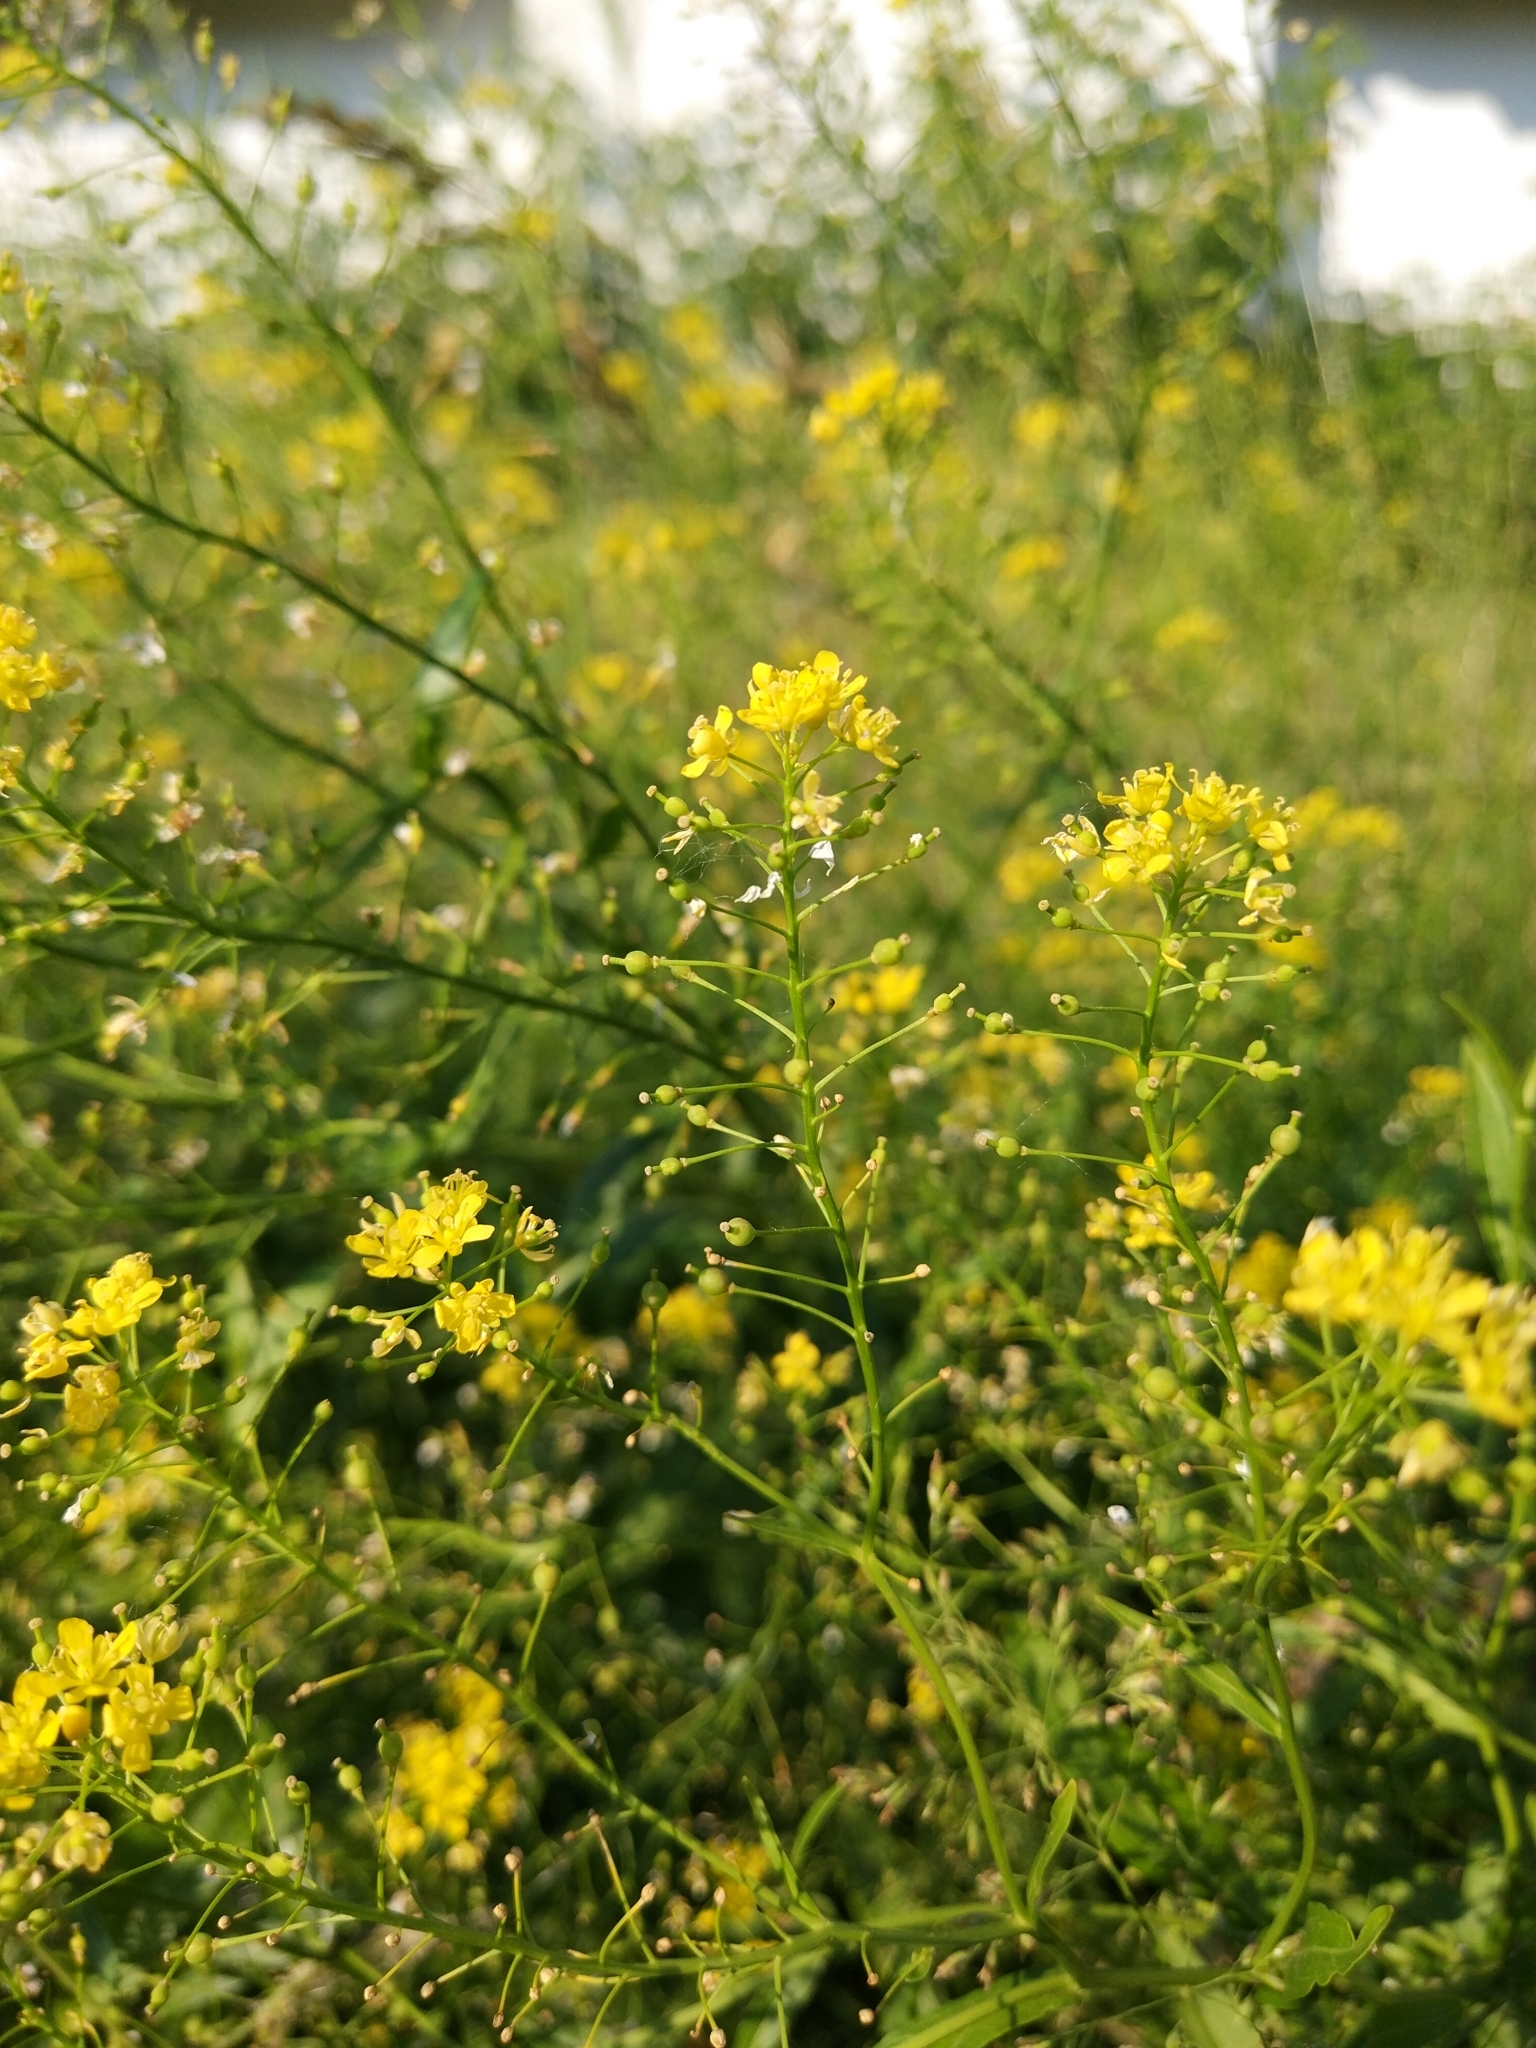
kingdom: Plantae
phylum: Tracheophyta
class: Magnoliopsida
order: Brassicales
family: Brassicaceae
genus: Bunias
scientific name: Bunias orientalis
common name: Warty-cabbage
